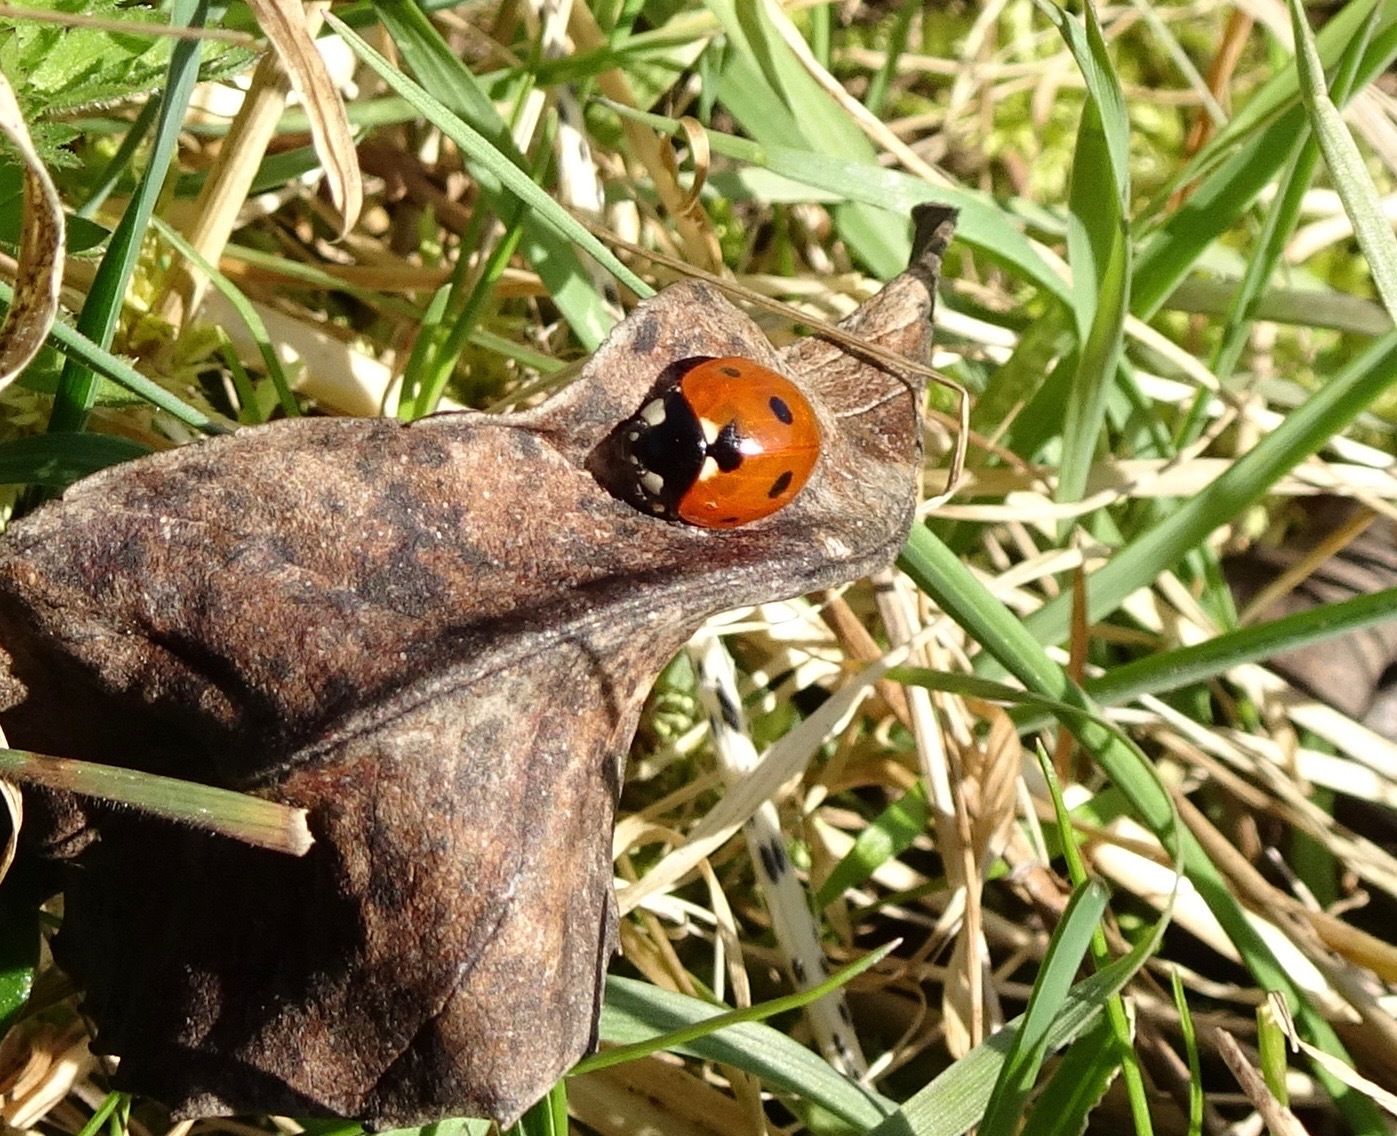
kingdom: Animalia
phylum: Arthropoda
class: Insecta
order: Coleoptera
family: Coccinellidae
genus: Coccinella
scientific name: Coccinella septempunctata
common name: Sevenspotted lady beetle
